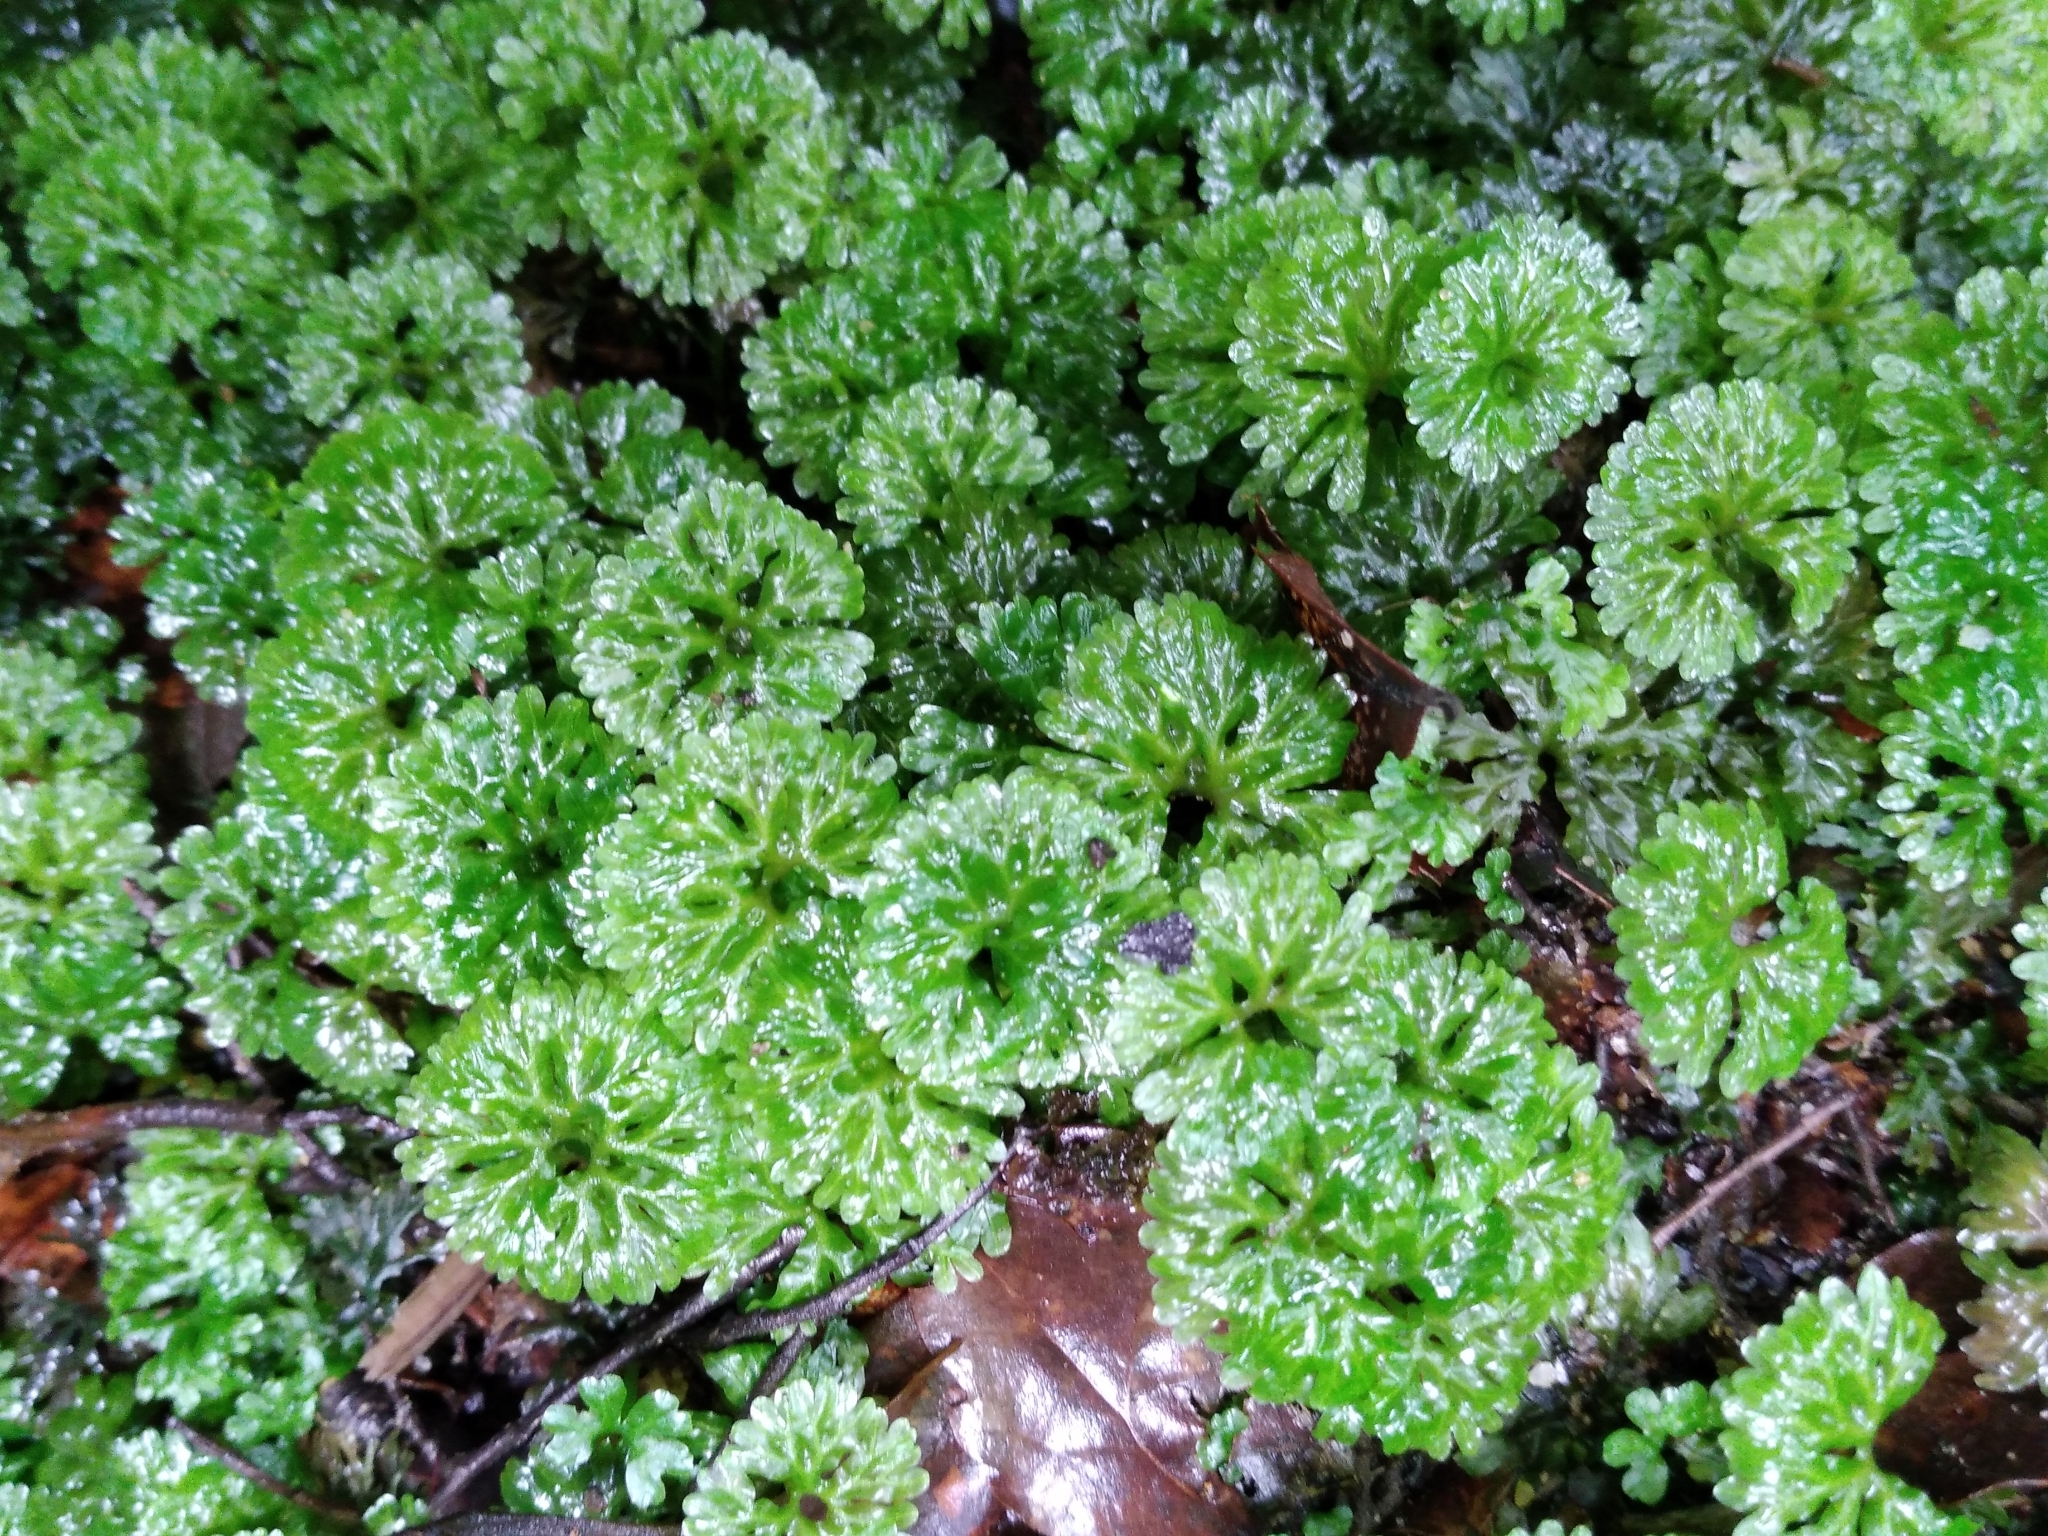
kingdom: Plantae
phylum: Marchantiophyta
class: Jungermanniopsida
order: Pallaviciniales
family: Hymenophytaceae
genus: Hymenophyton
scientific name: Hymenophyton flabellatum
